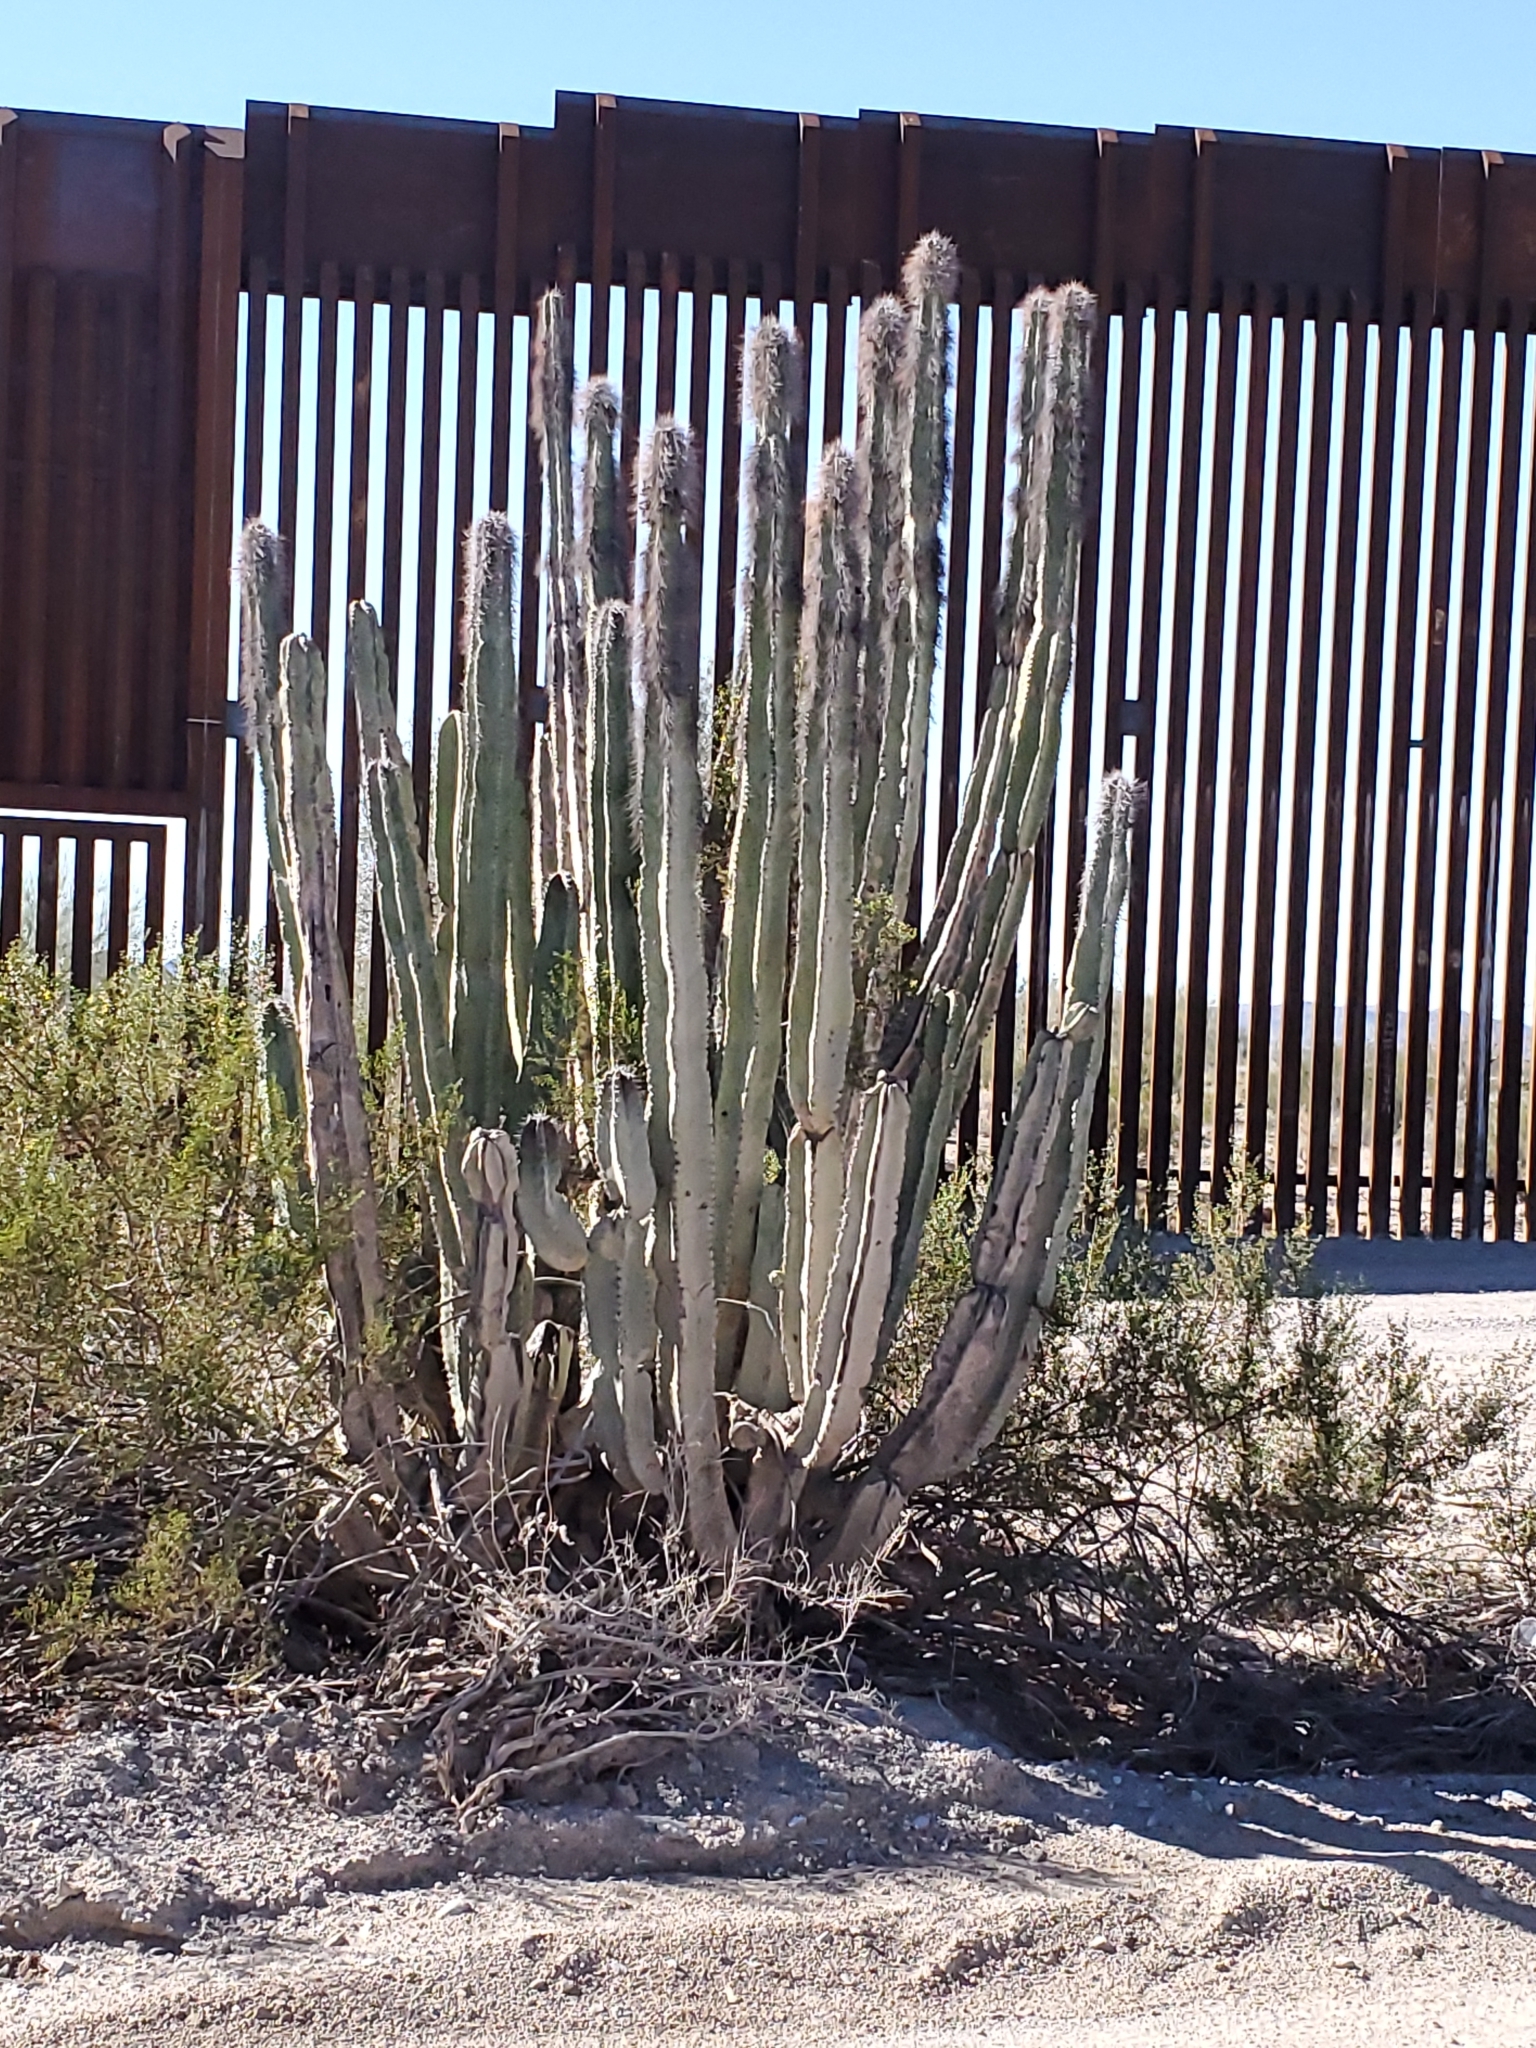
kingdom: Plantae
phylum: Tracheophyta
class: Magnoliopsida
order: Caryophyllales
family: Cactaceae
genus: Pachycereus
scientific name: Pachycereus schottii
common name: Senita cactus
